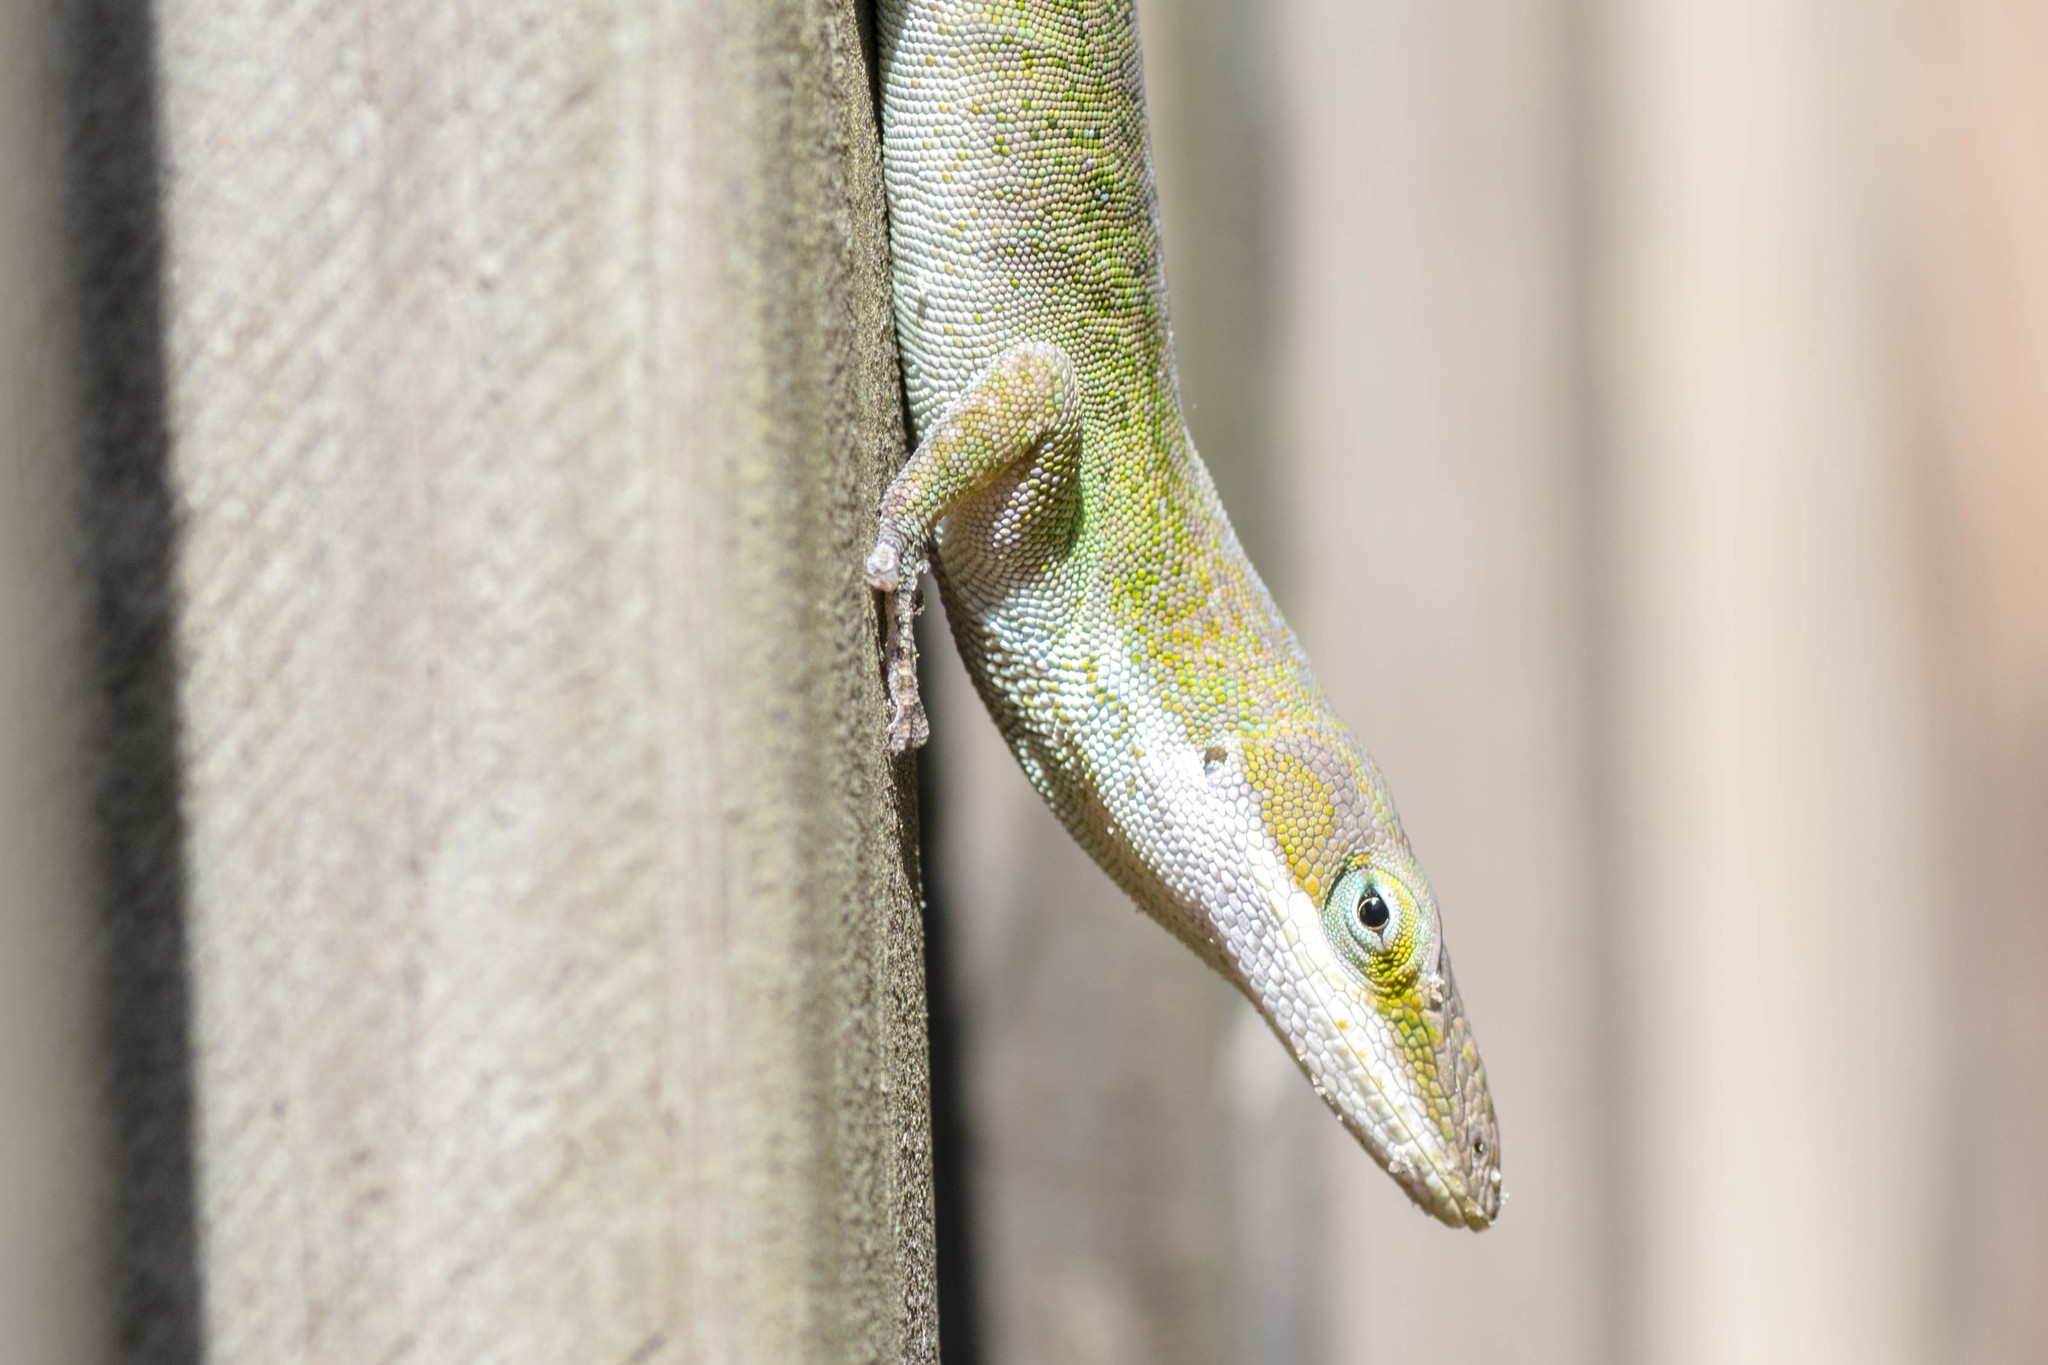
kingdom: Animalia
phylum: Chordata
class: Squamata
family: Dactyloidae
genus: Anolis
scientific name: Anolis carolinensis
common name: Green anole
